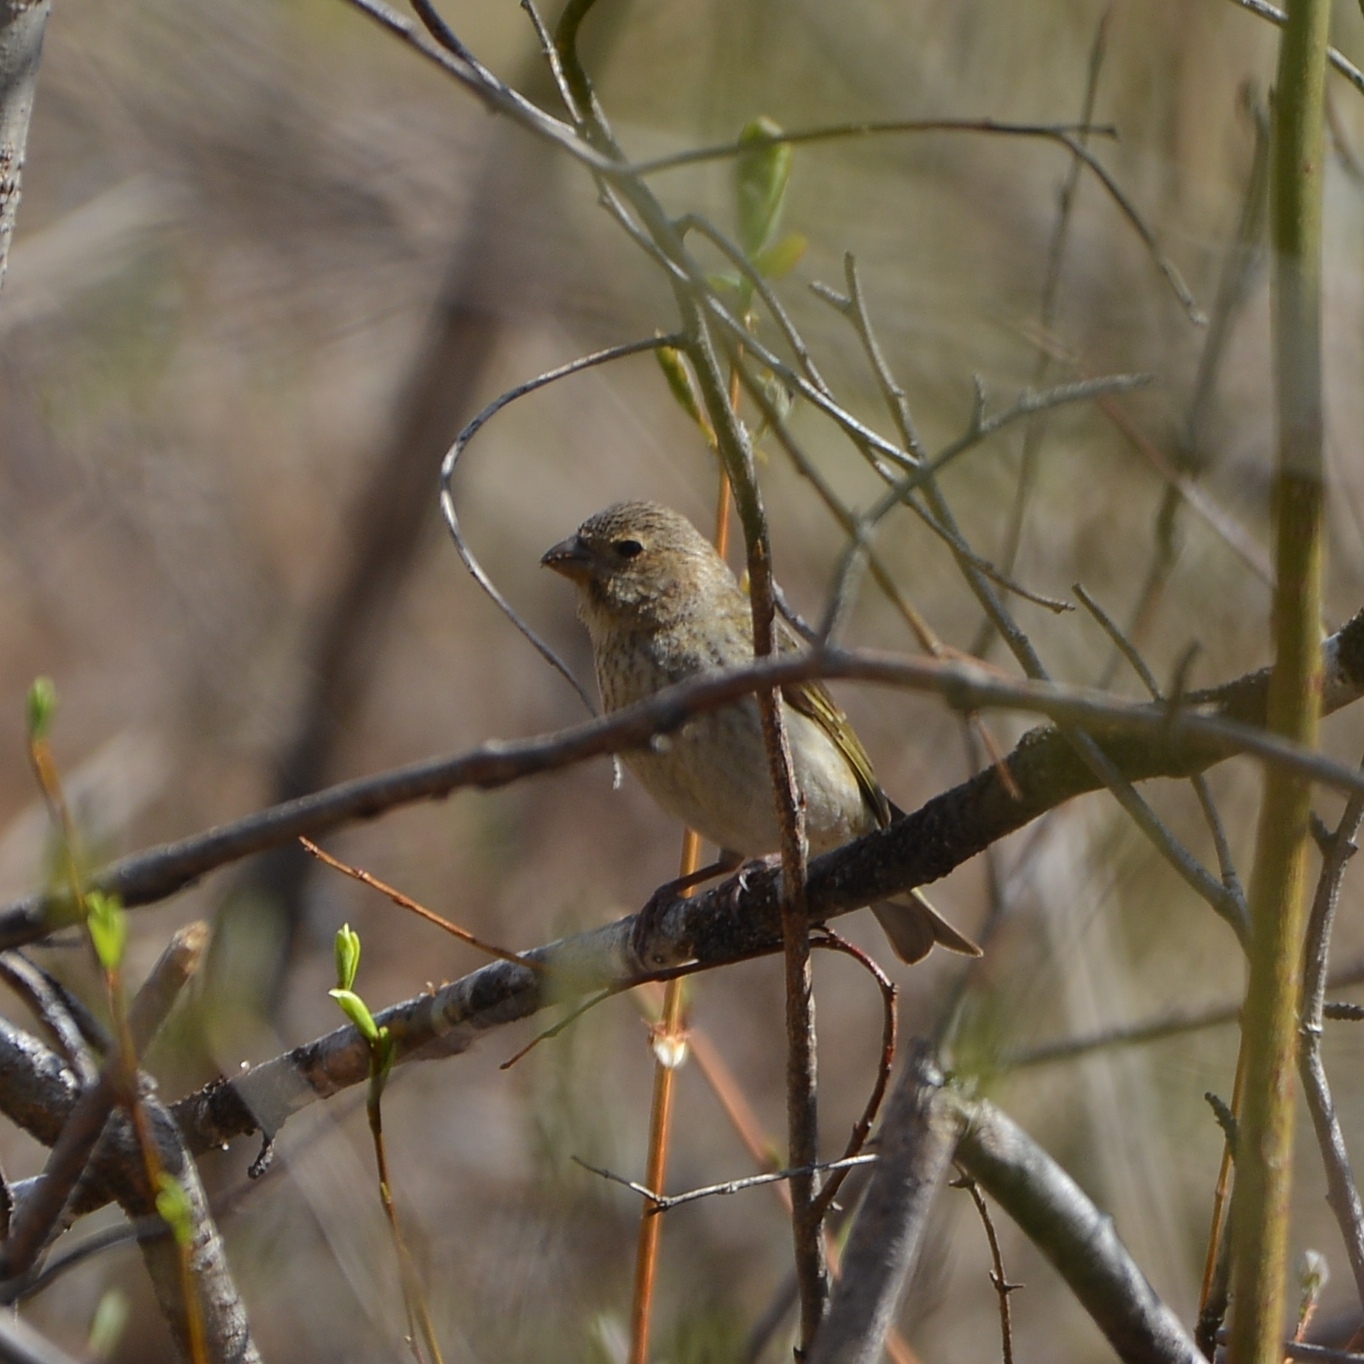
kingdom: Animalia
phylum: Chordata
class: Aves
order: Passeriformes
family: Fringillidae
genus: Carpodacus
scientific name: Carpodacus erythrinus
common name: Common rosefinch
